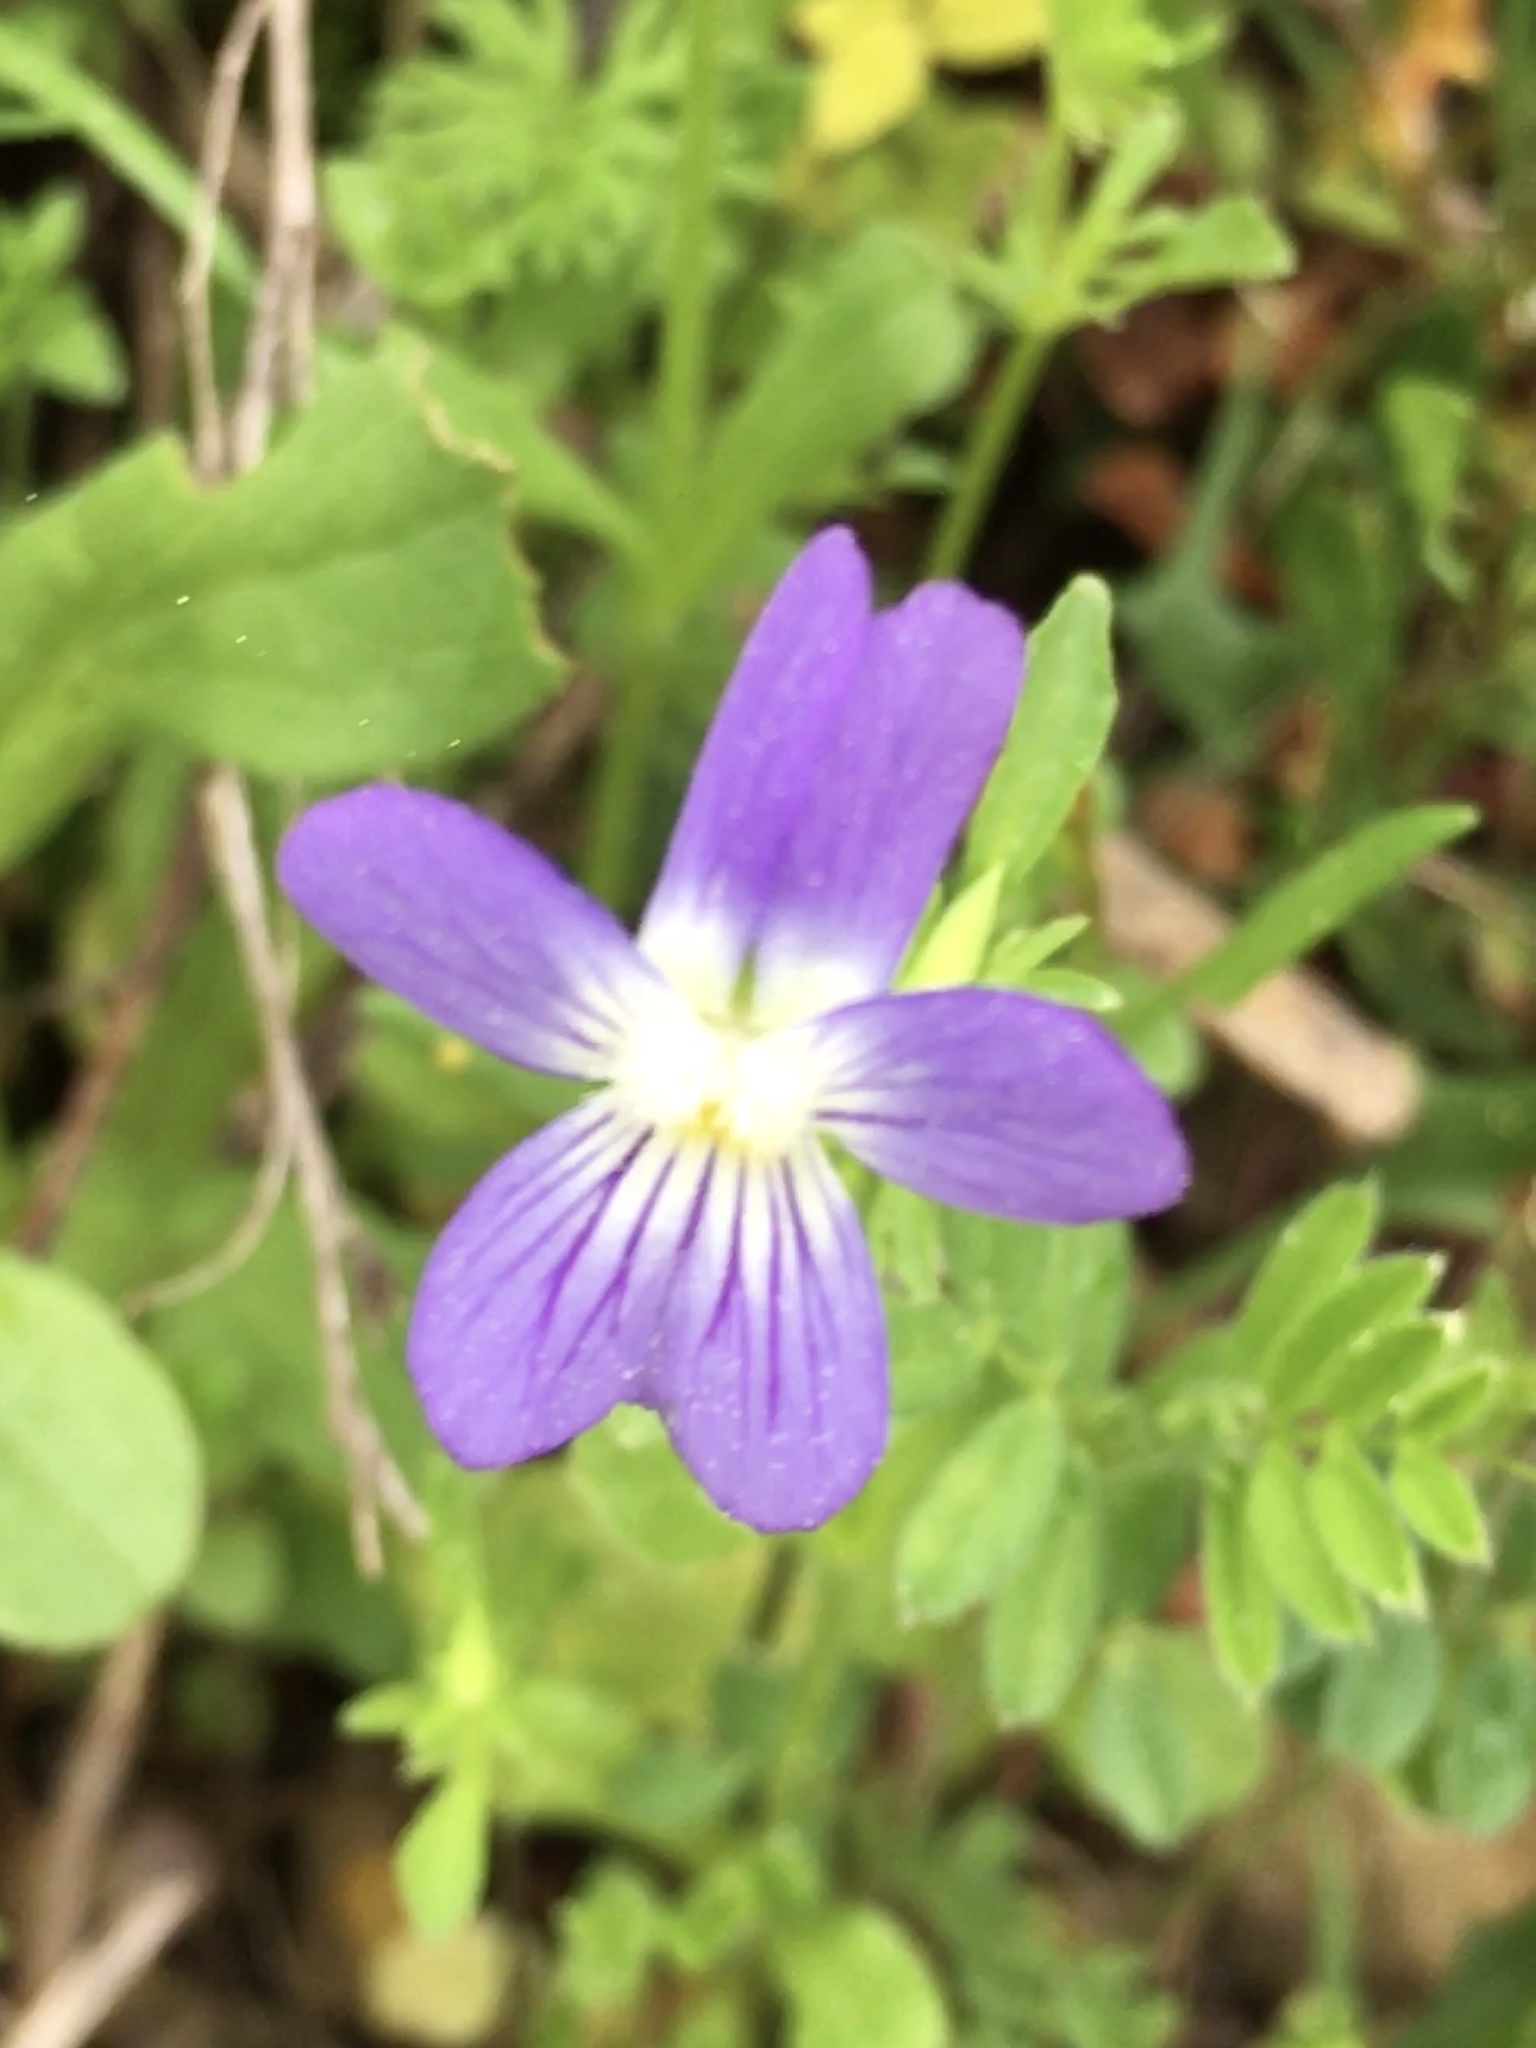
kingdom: Plantae
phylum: Tracheophyta
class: Magnoliopsida
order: Malpighiales
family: Violaceae
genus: Viola
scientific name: Viola rafinesquei
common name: American field pansy
